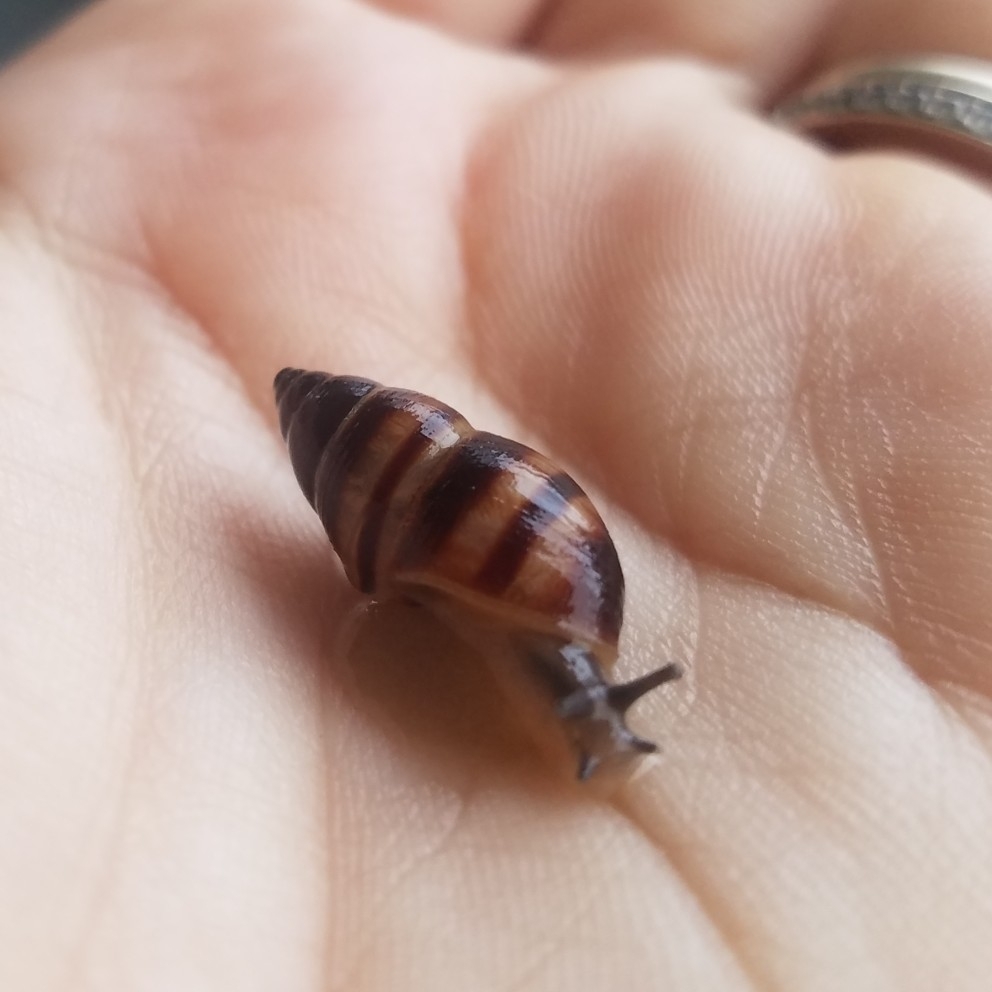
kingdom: Animalia
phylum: Mollusca
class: Gastropoda
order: Stylommatophora
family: Bulimulidae
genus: Bulimulus
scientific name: Bulimulus guadalupensis
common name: West indian bulimulus
